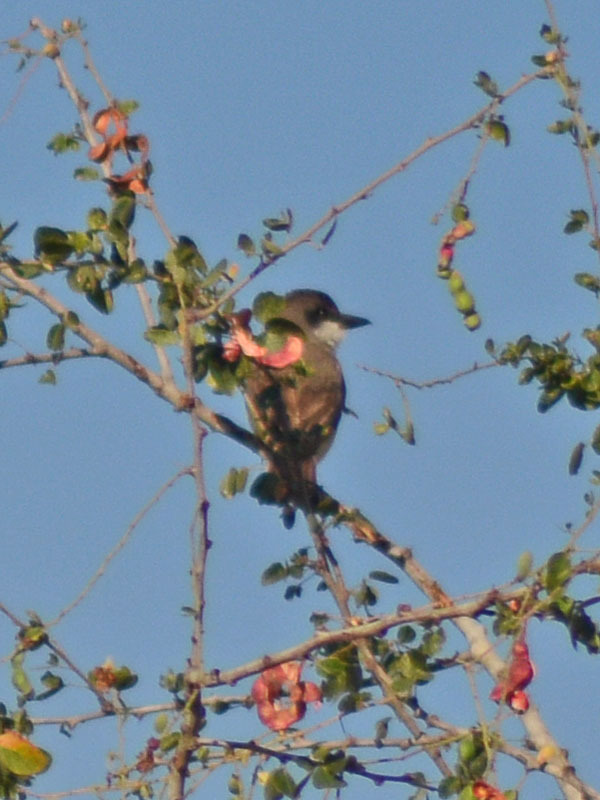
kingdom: Animalia
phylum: Chordata
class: Aves
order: Passeriformes
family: Tyrannidae
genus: Tyrannus
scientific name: Tyrannus crassirostris
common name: Thick-billed kingbird
